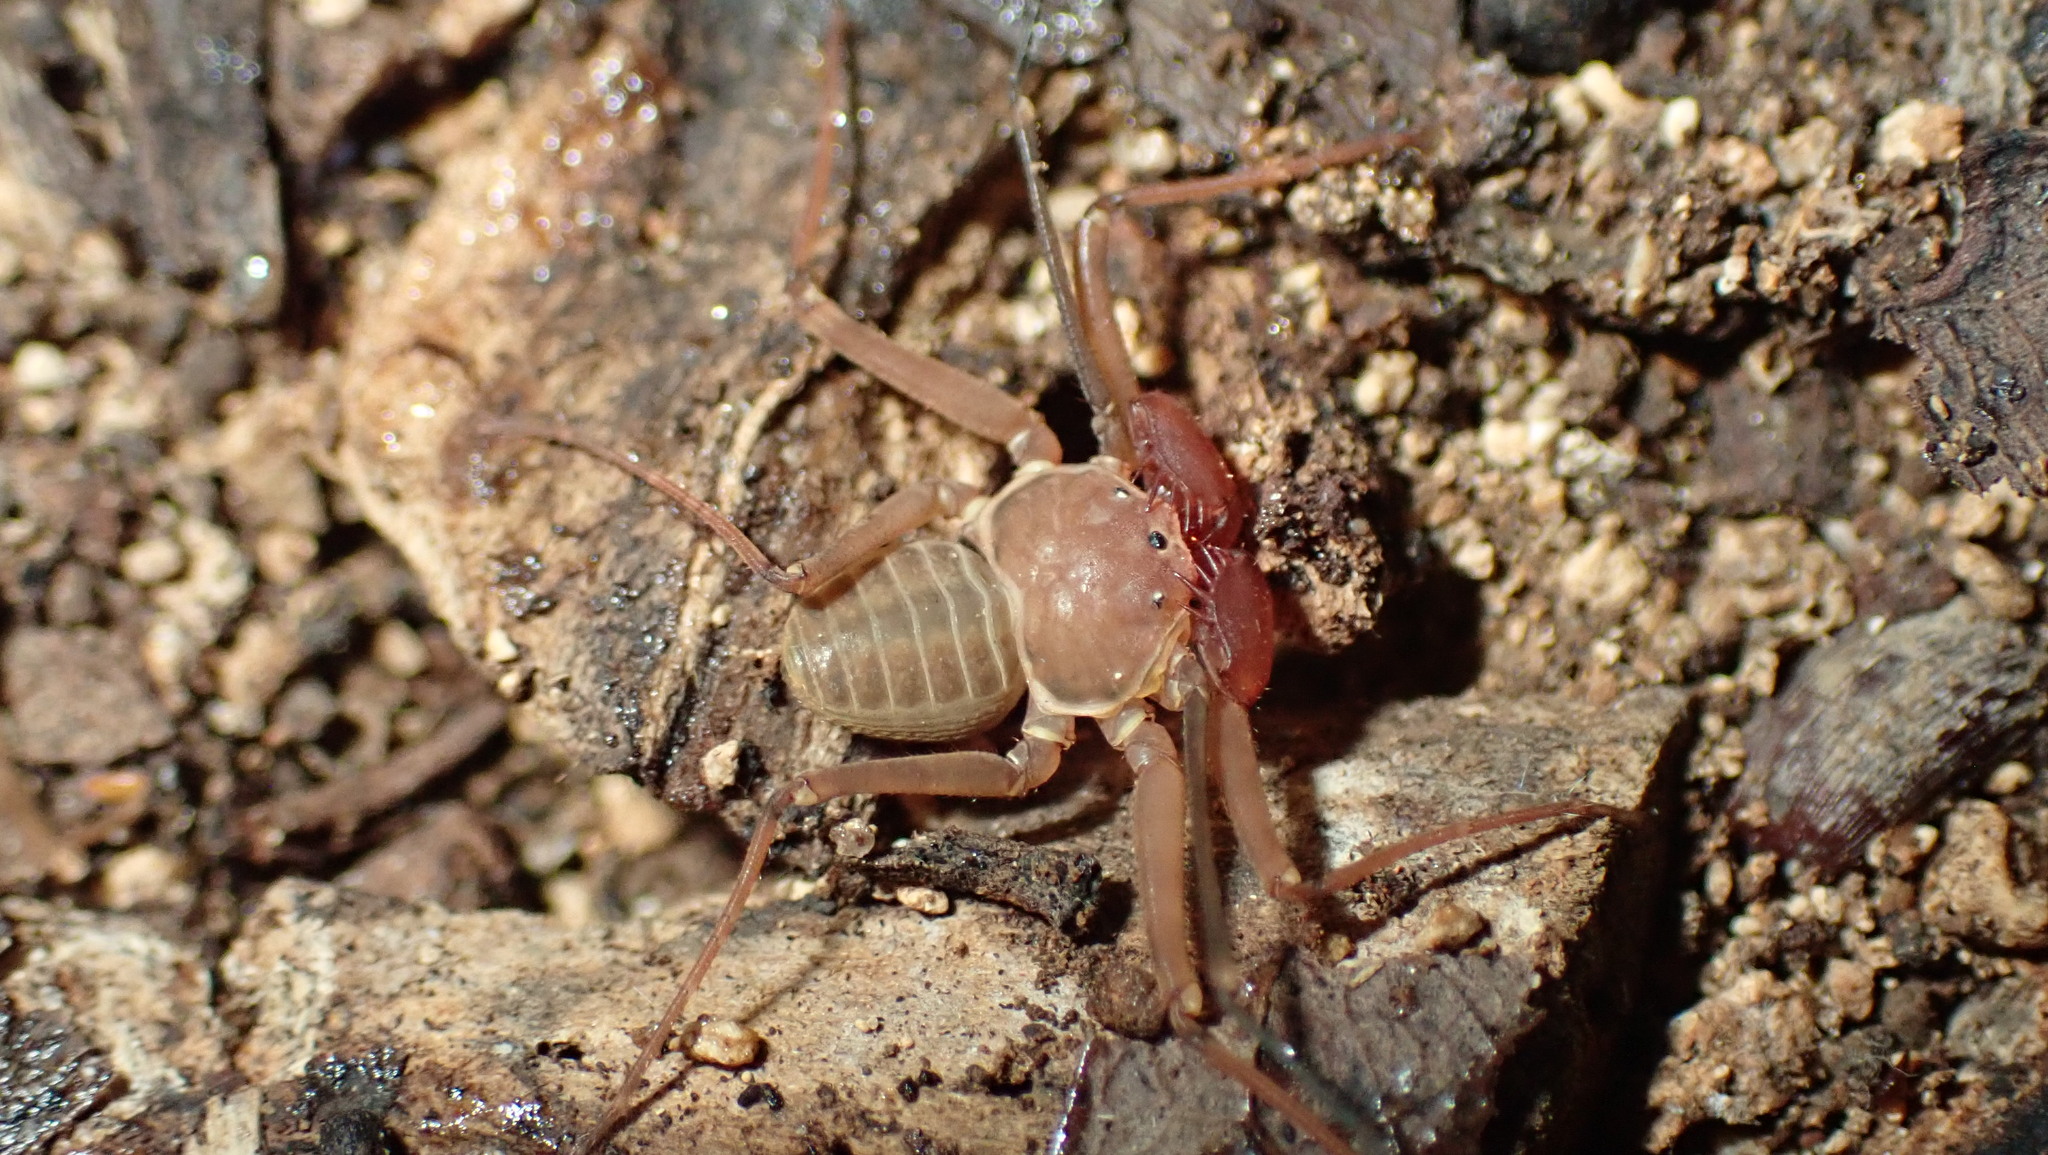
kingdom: Animalia
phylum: Arthropoda
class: Arachnida
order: Amblypygi
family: Phrynidae
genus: Phrynus
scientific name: Phrynus alejandroi
